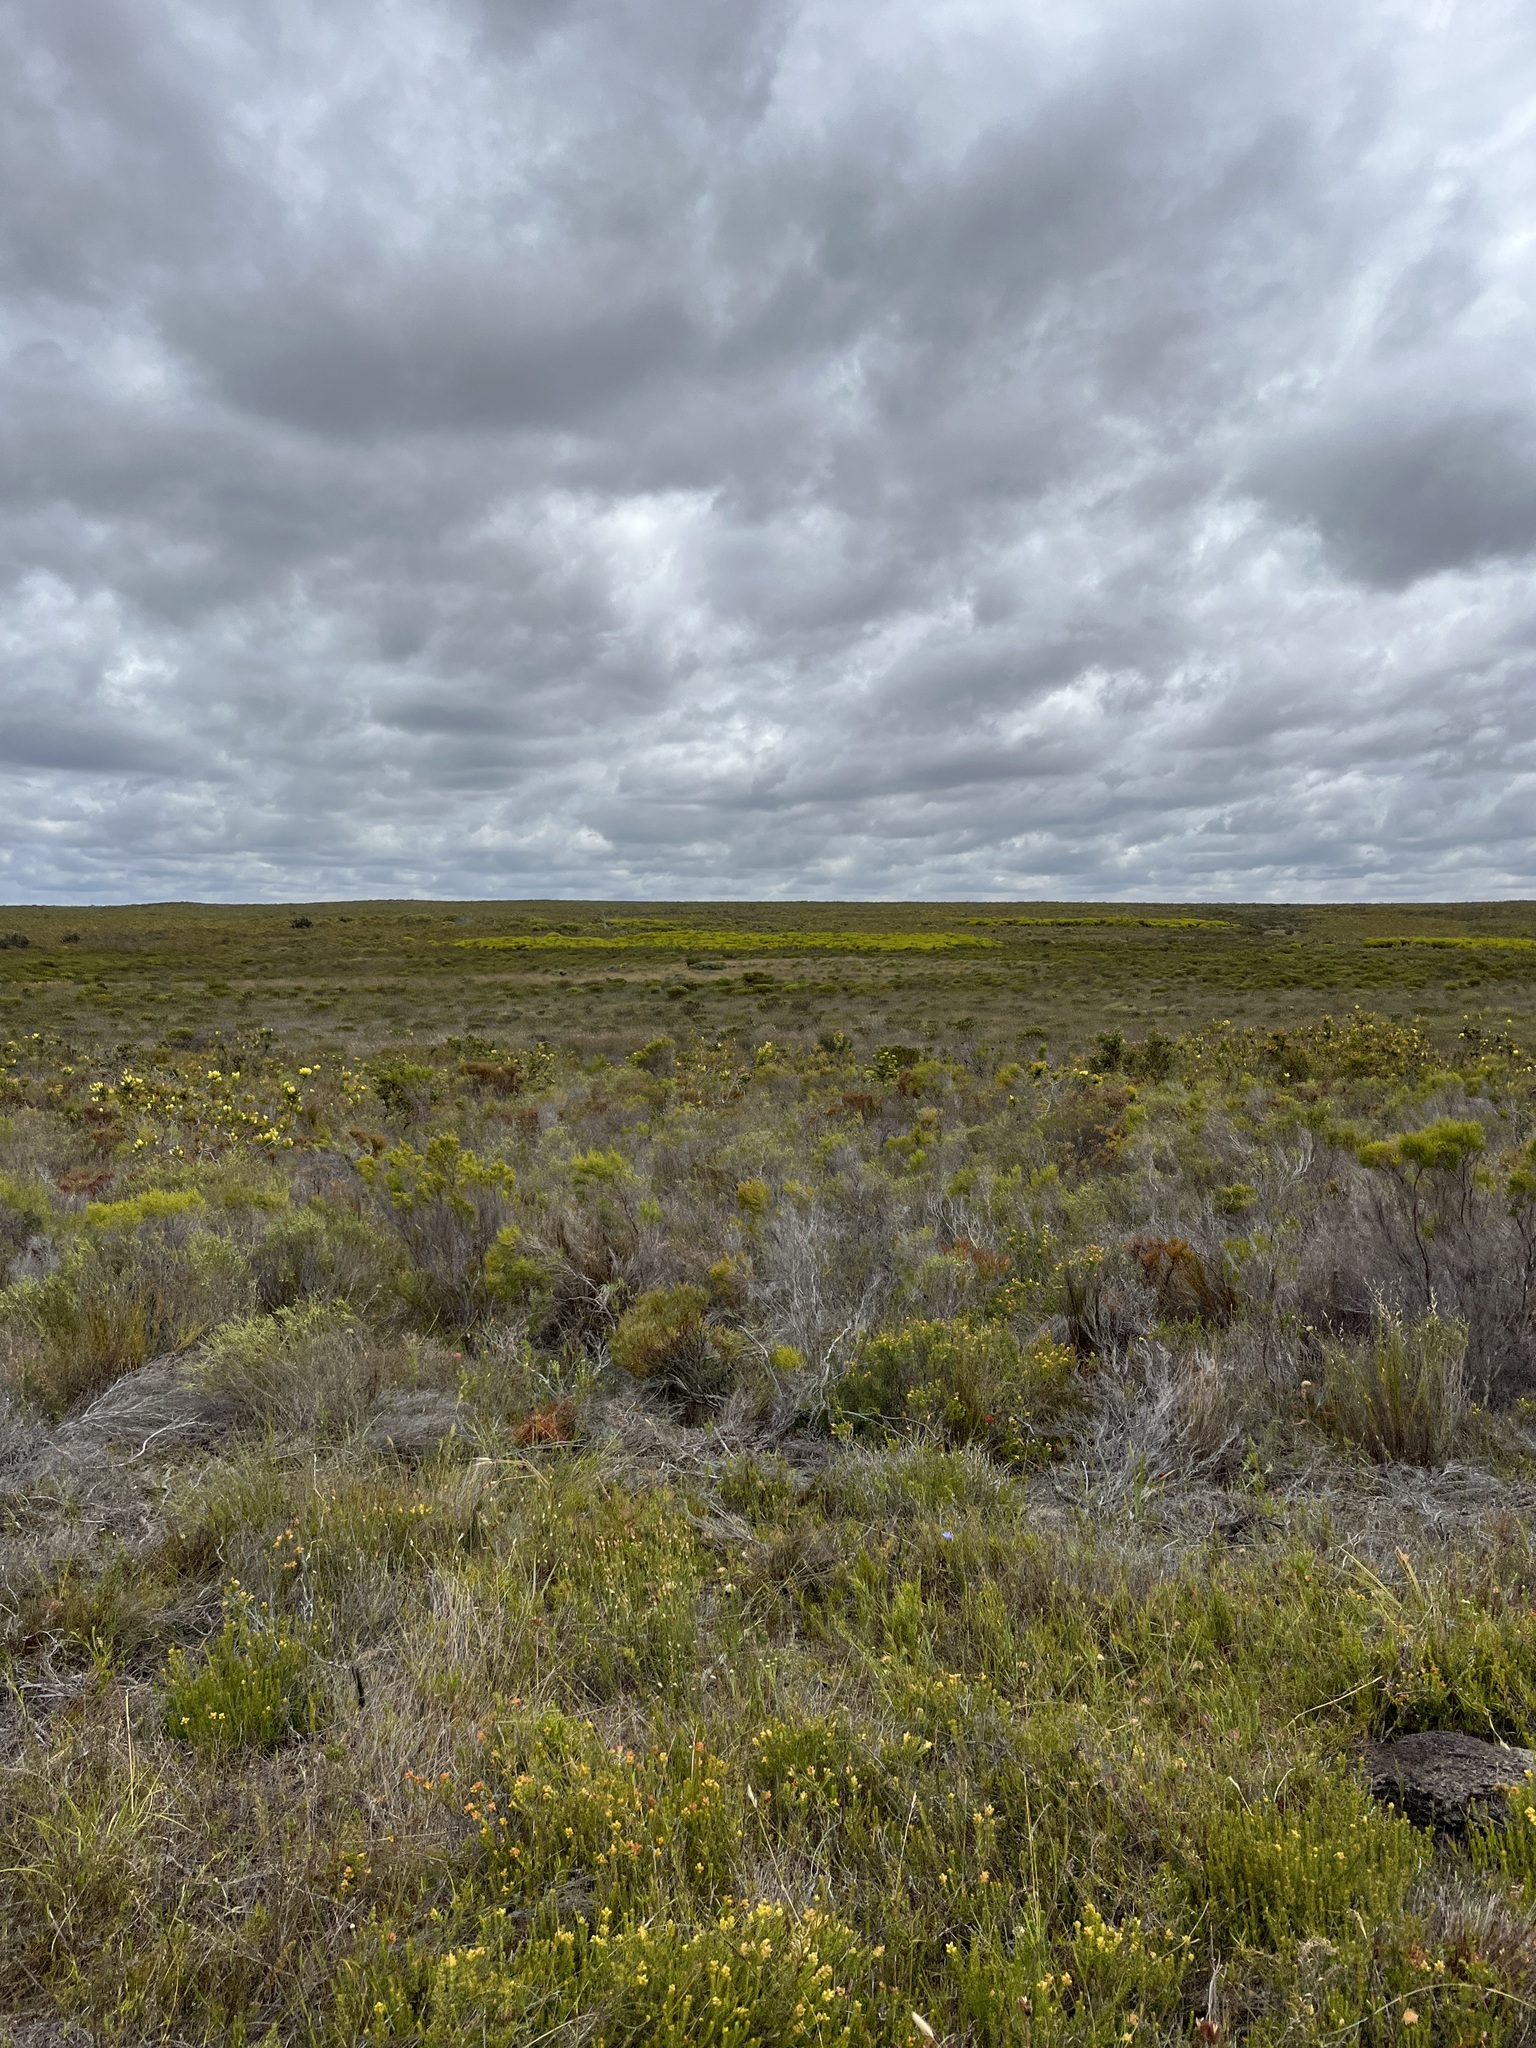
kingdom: Plantae
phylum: Tracheophyta
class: Magnoliopsida
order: Proteales
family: Proteaceae
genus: Leucadendron
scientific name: Leucadendron platyspermum
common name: Plate-seed conebush
